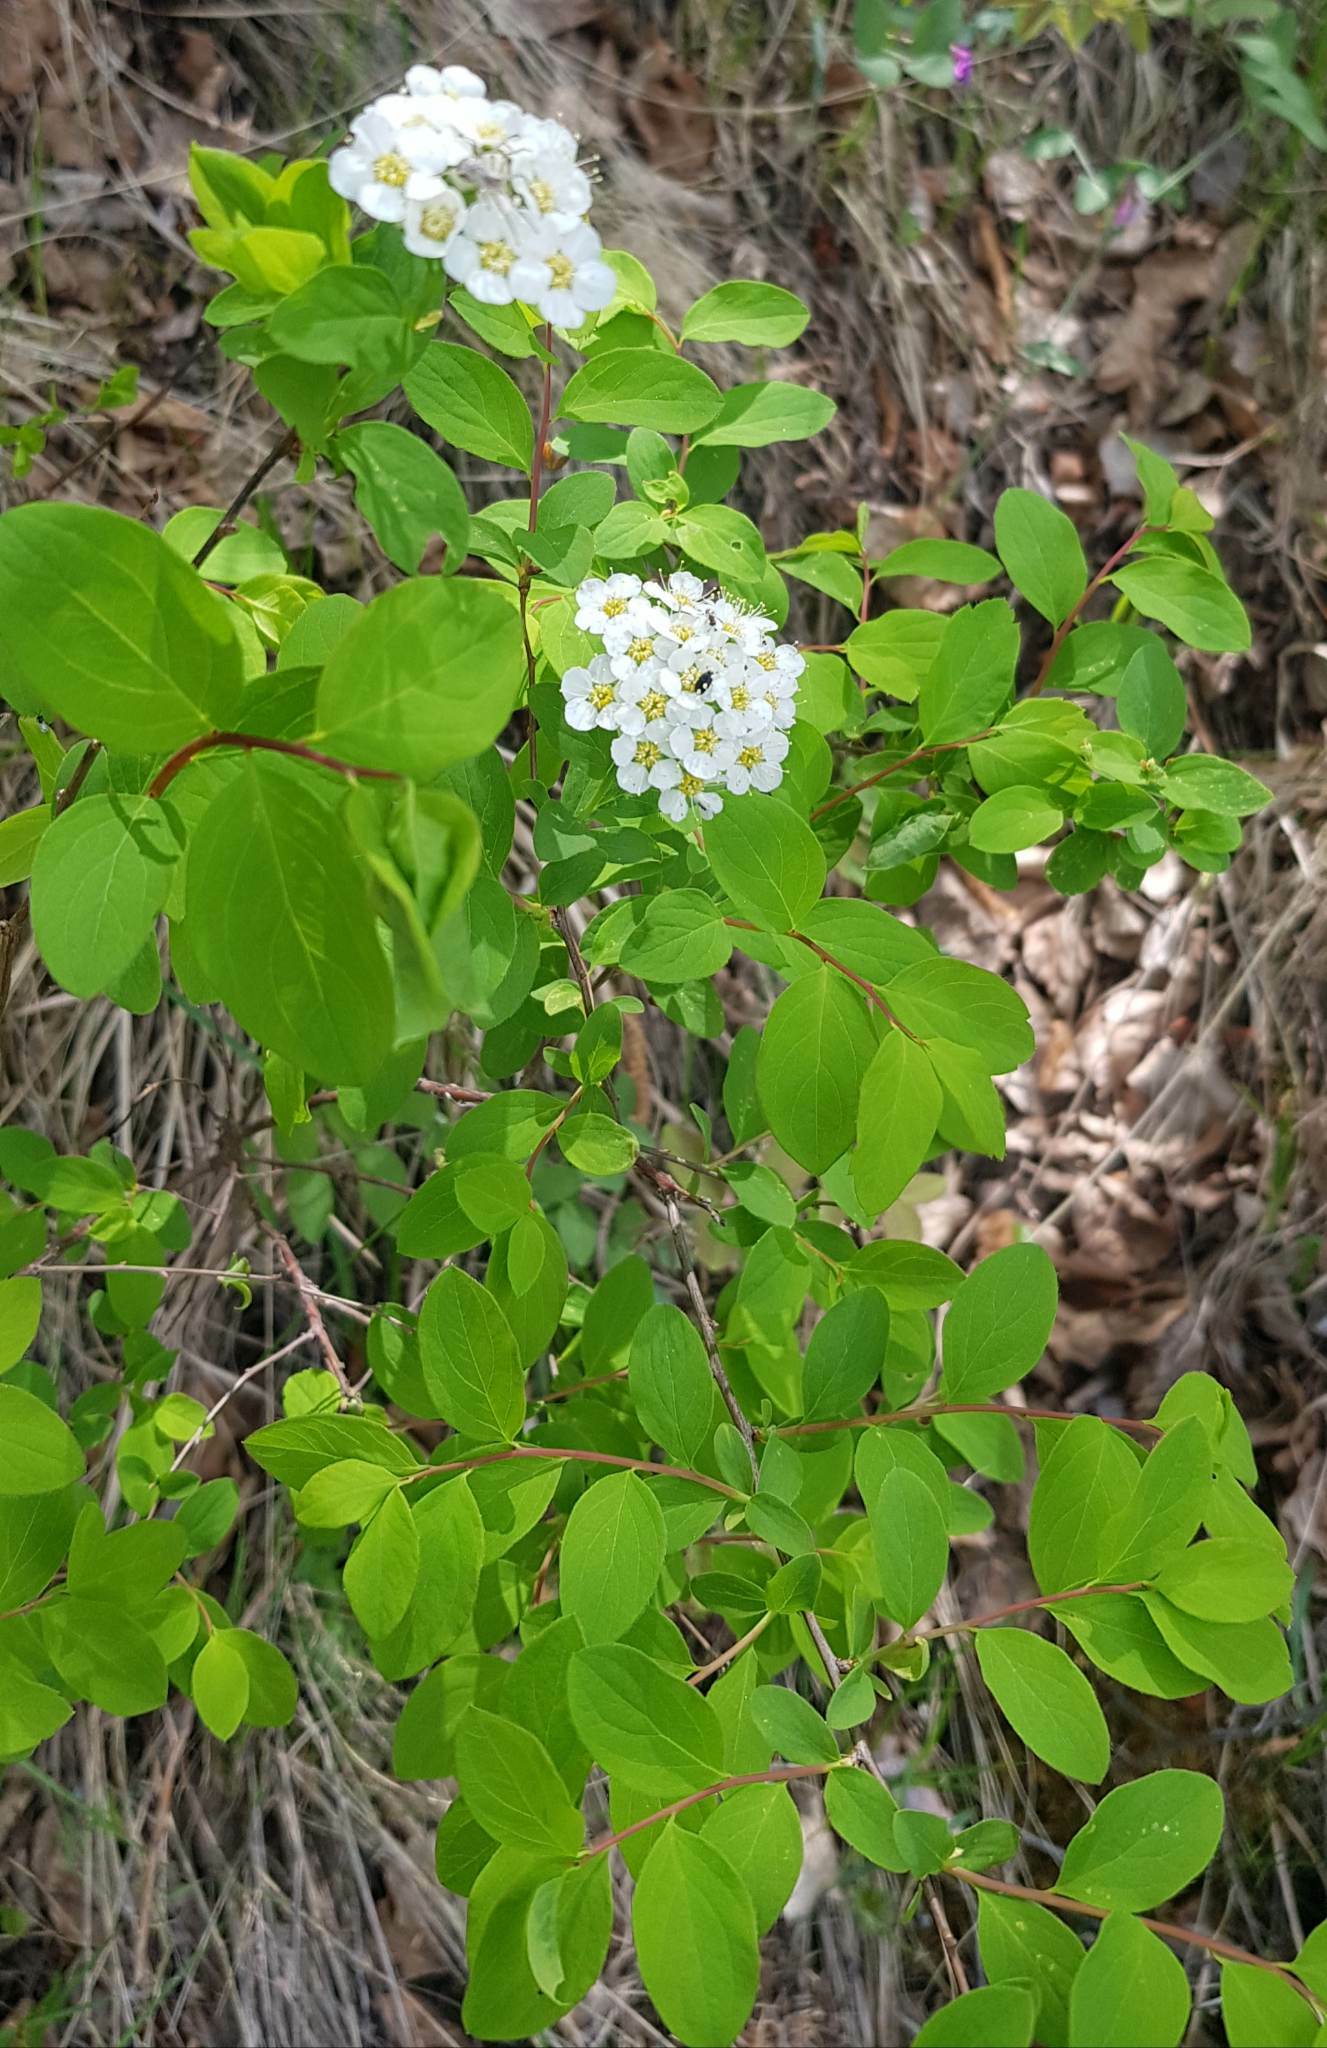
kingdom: Plantae
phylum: Tracheophyta
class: Magnoliopsida
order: Rosales
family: Rosaceae
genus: Spiraea
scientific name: Spiraea flexuosa
